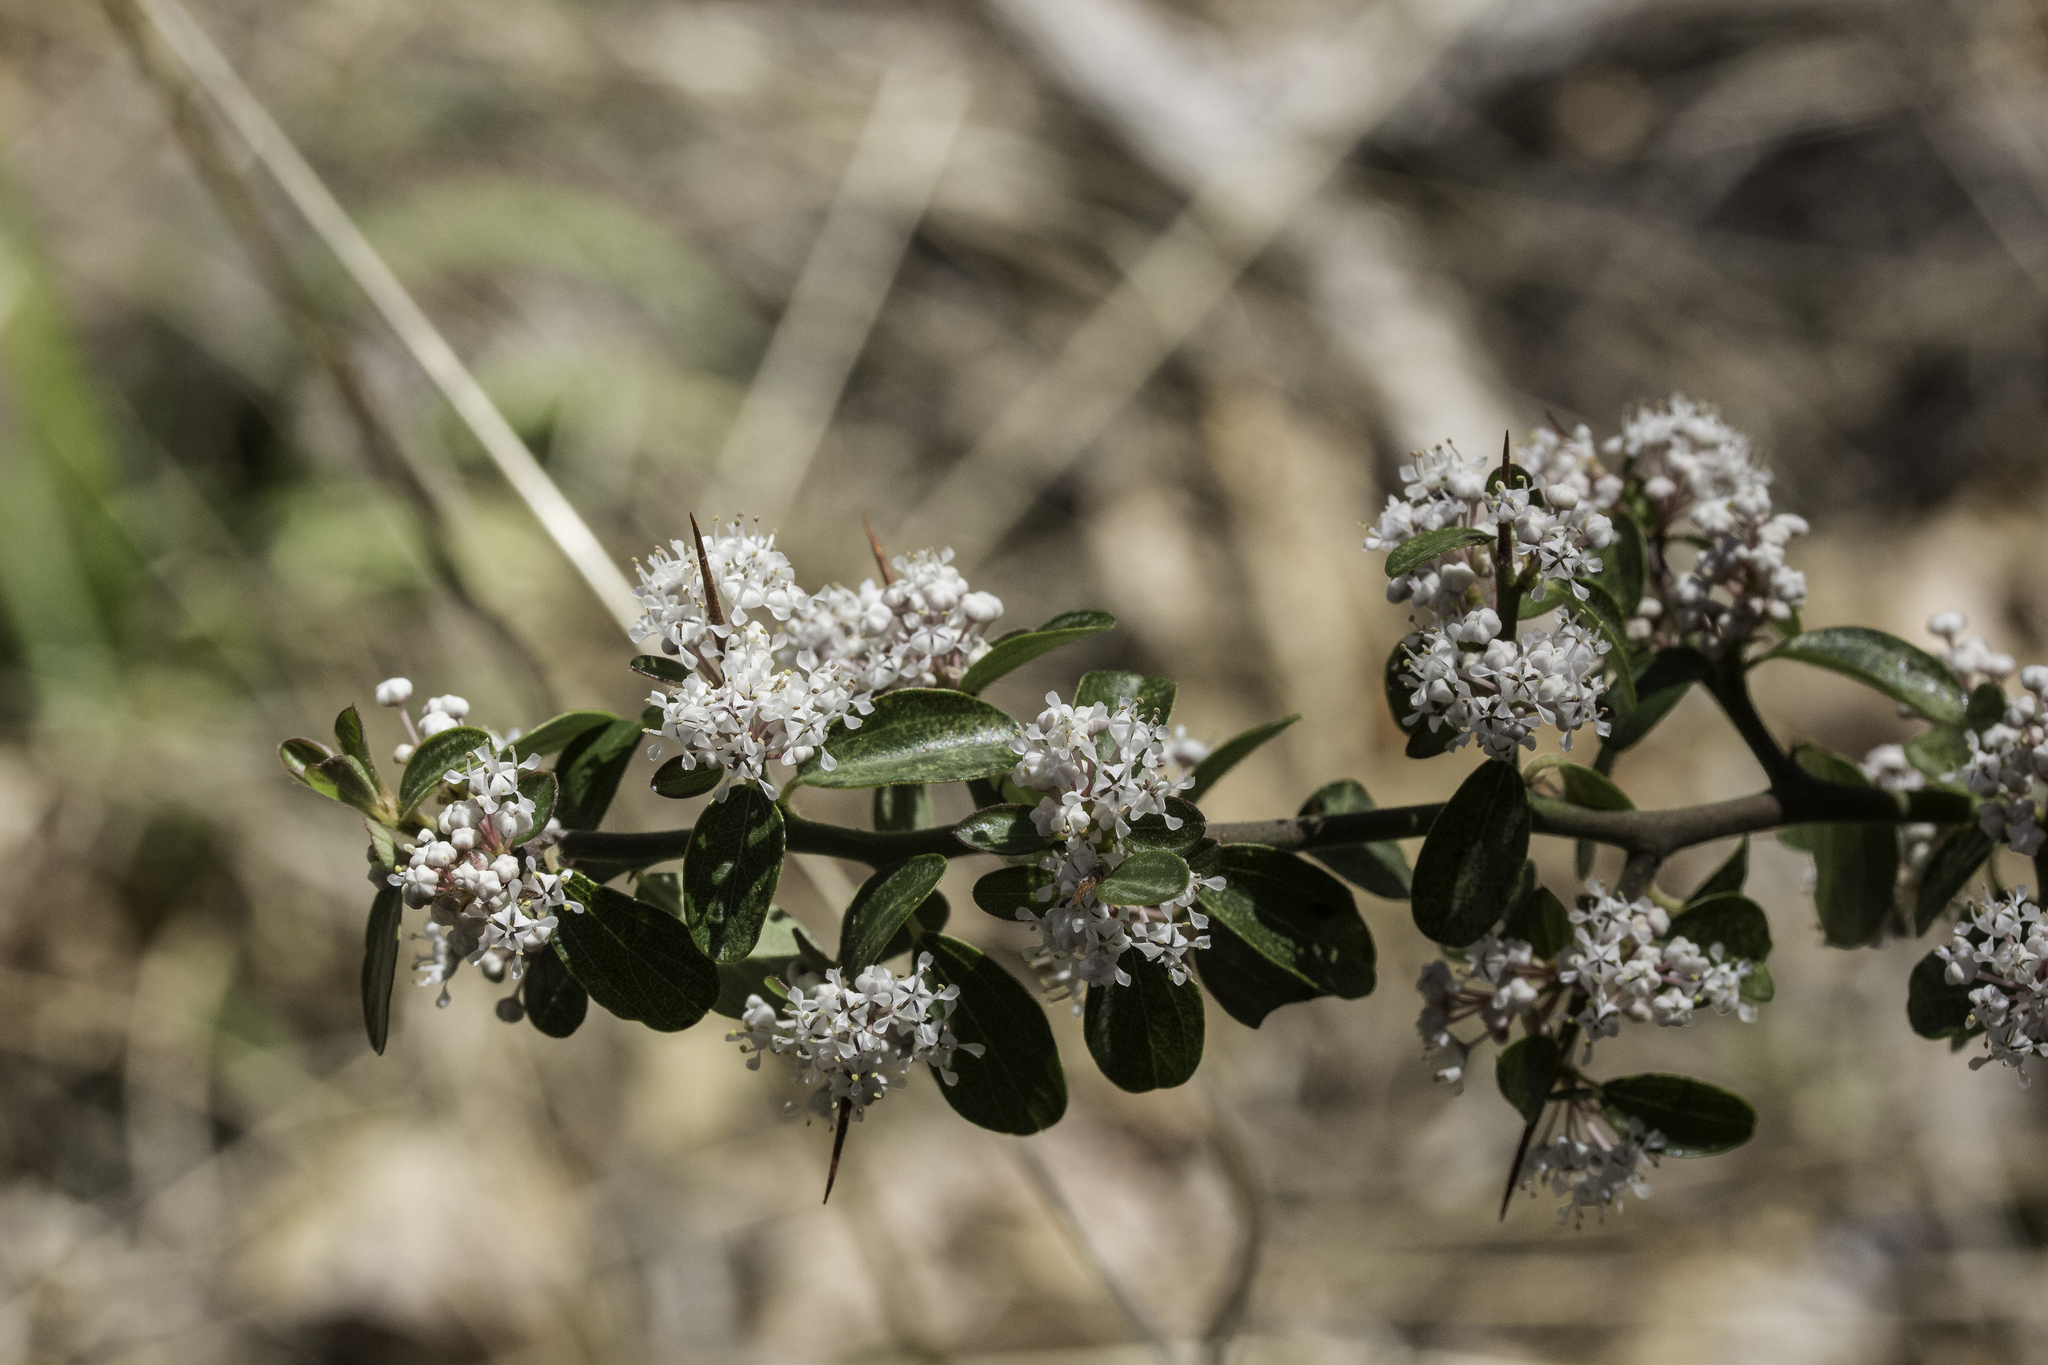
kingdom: Plantae
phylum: Tracheophyta
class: Magnoliopsida
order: Rosales
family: Rhamnaceae
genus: Ceanothus
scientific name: Ceanothus fendleri
